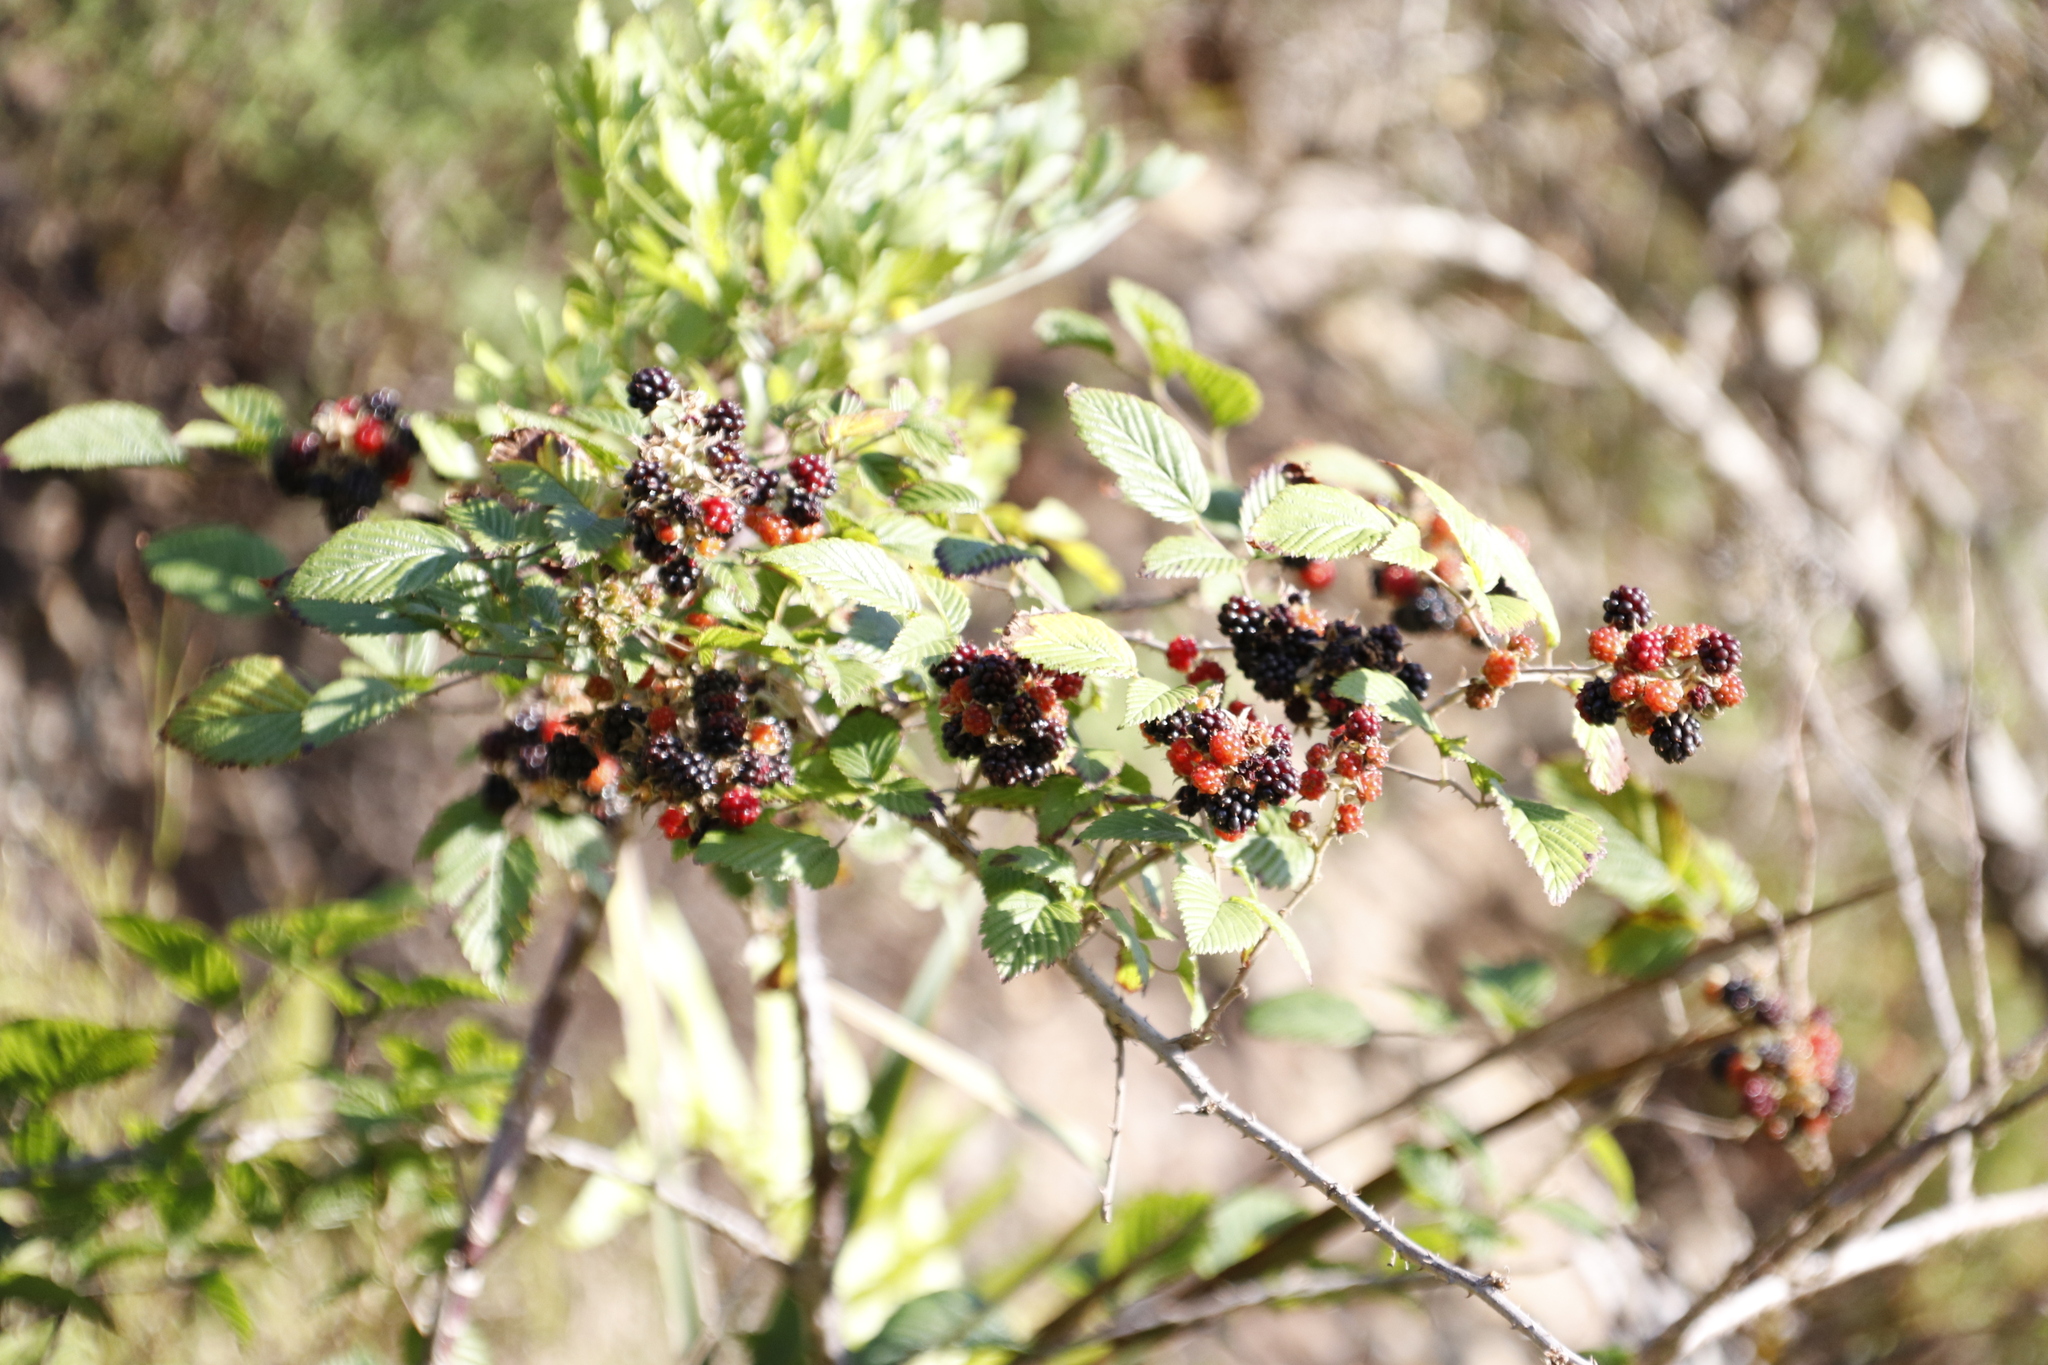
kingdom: Plantae
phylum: Tracheophyta
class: Magnoliopsida
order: Rosales
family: Rosaceae
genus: Rubus
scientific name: Rubus affinis
